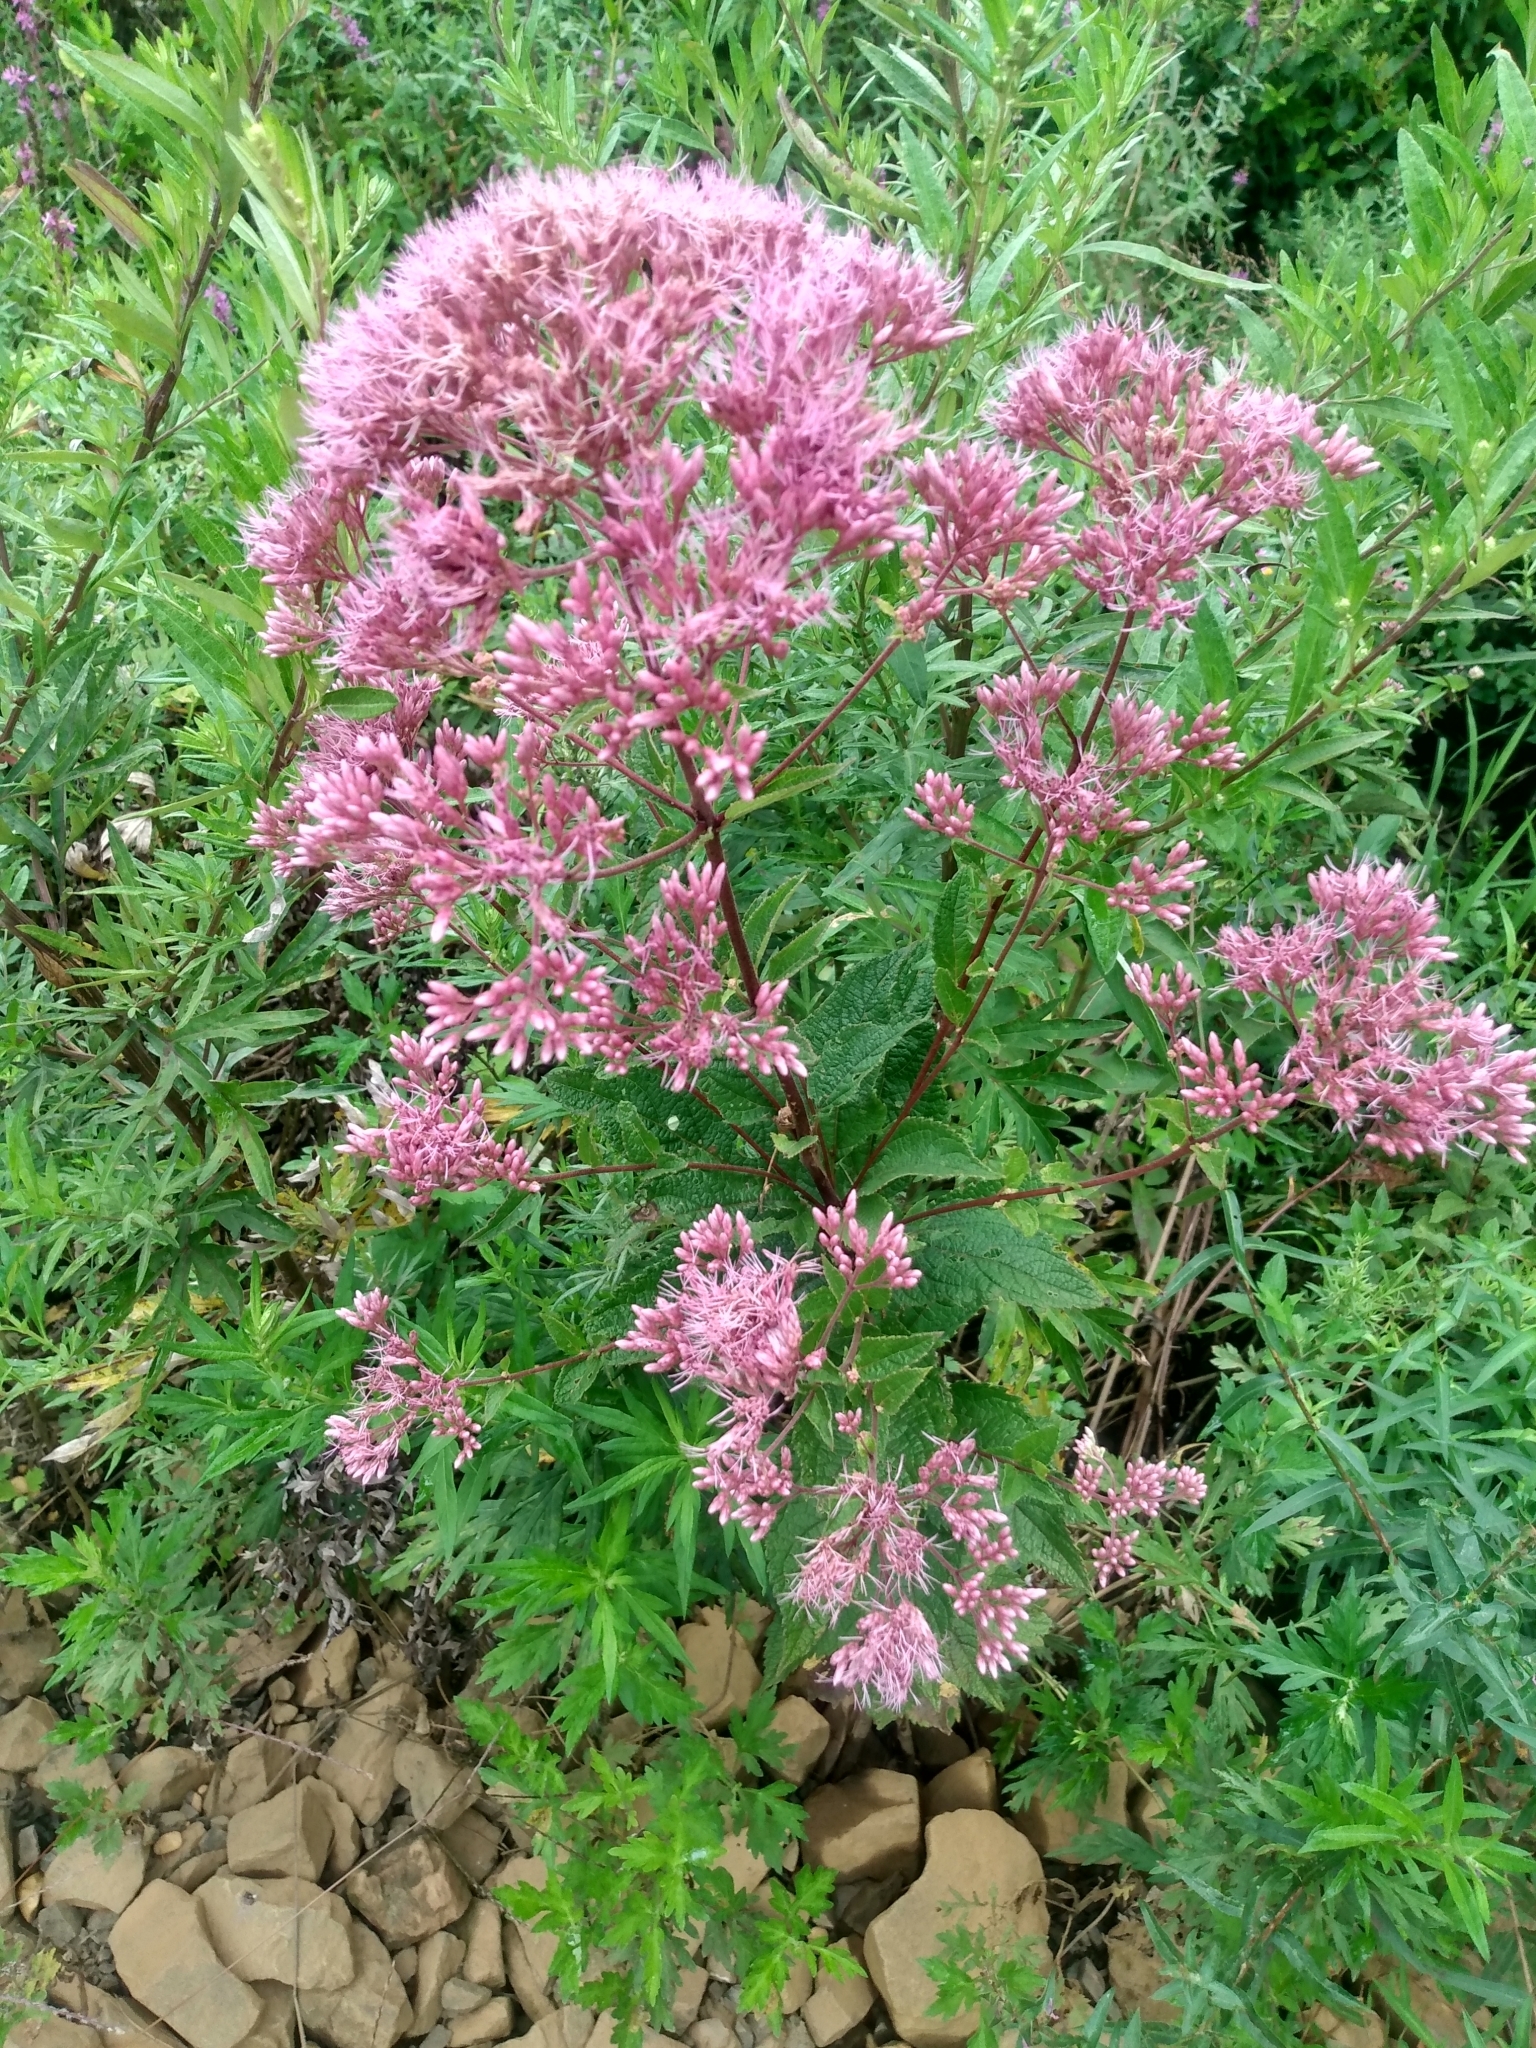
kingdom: Plantae
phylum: Tracheophyta
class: Magnoliopsida
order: Asterales
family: Asteraceae
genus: Eutrochium
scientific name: Eutrochium dubium
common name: Coastal plain joe pye weed
